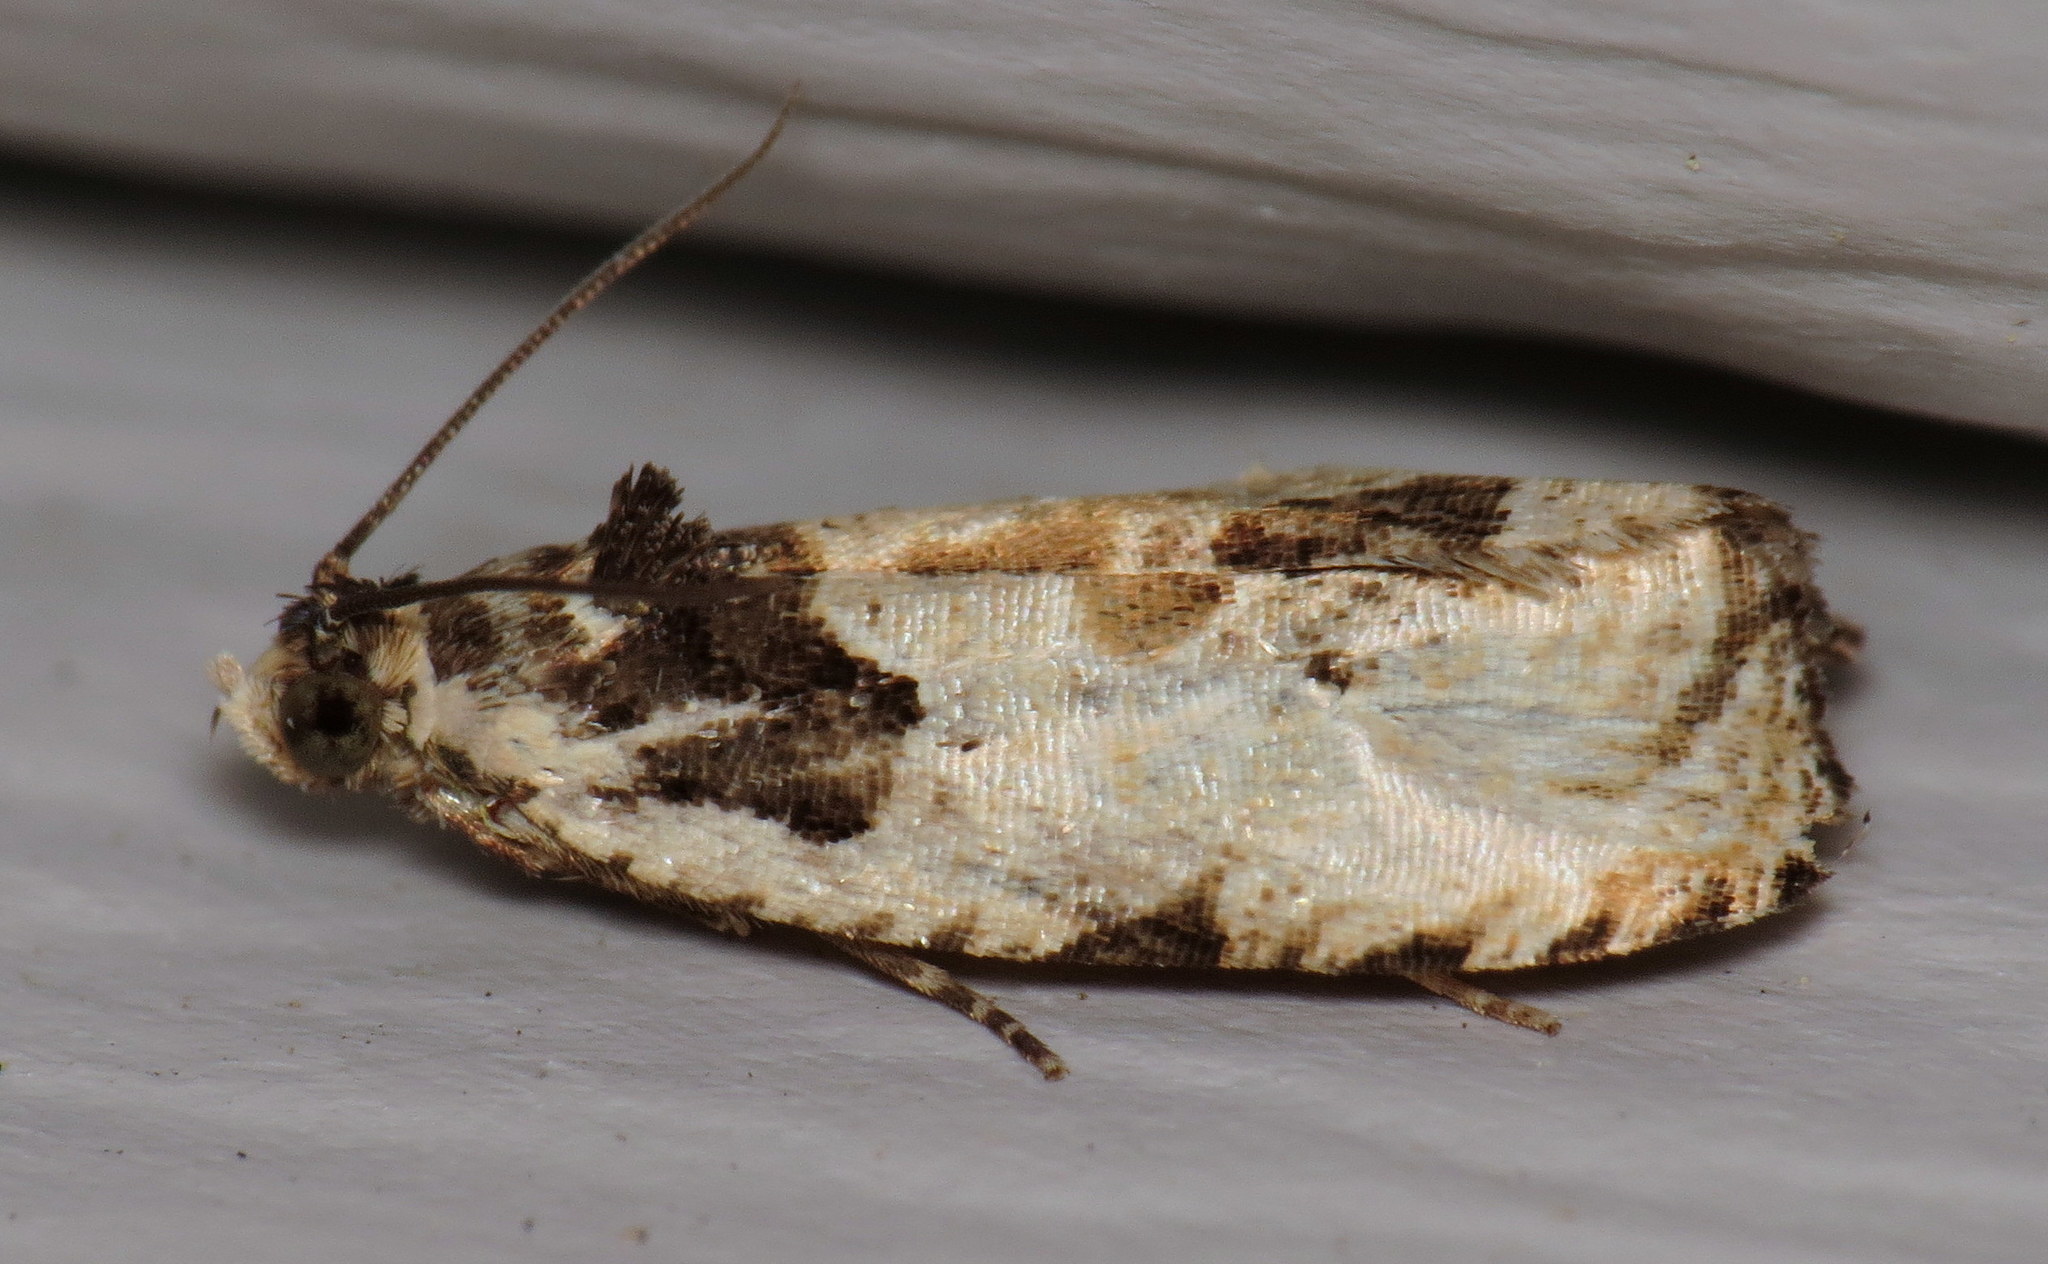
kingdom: Animalia
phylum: Arthropoda
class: Insecta
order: Lepidoptera
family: Tortricidae
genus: Olethreutes
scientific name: Olethreutes griseoalbana
